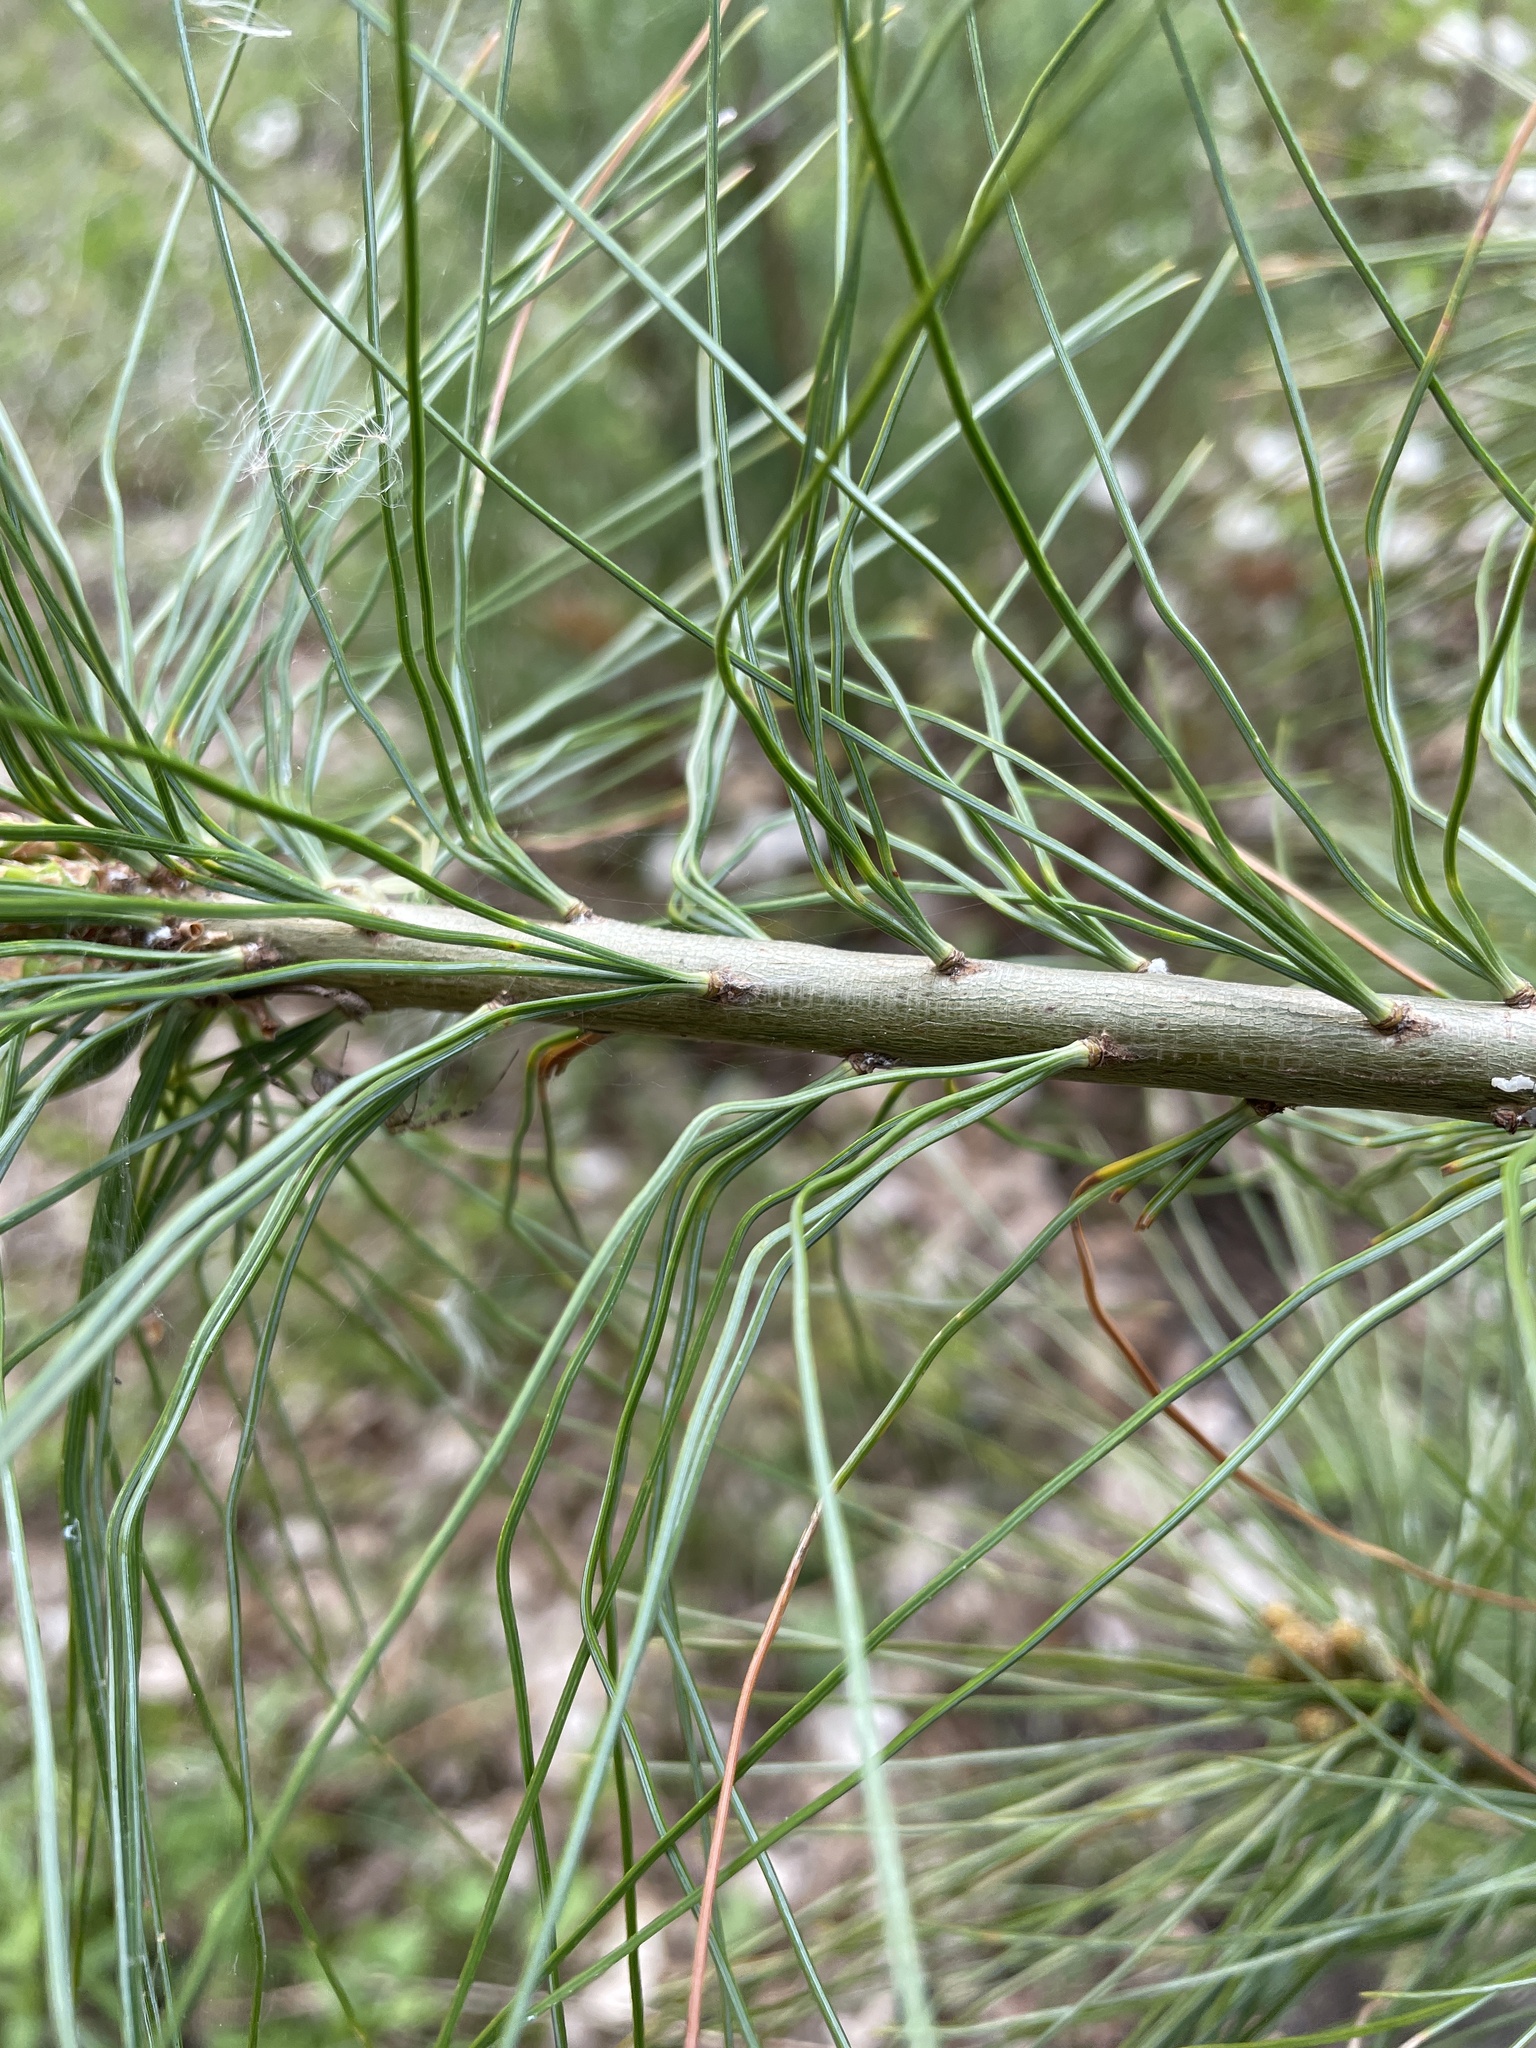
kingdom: Plantae
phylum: Tracheophyta
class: Pinopsida
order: Pinales
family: Pinaceae
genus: Pinus
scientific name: Pinus strobus
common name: Weymouth pine
